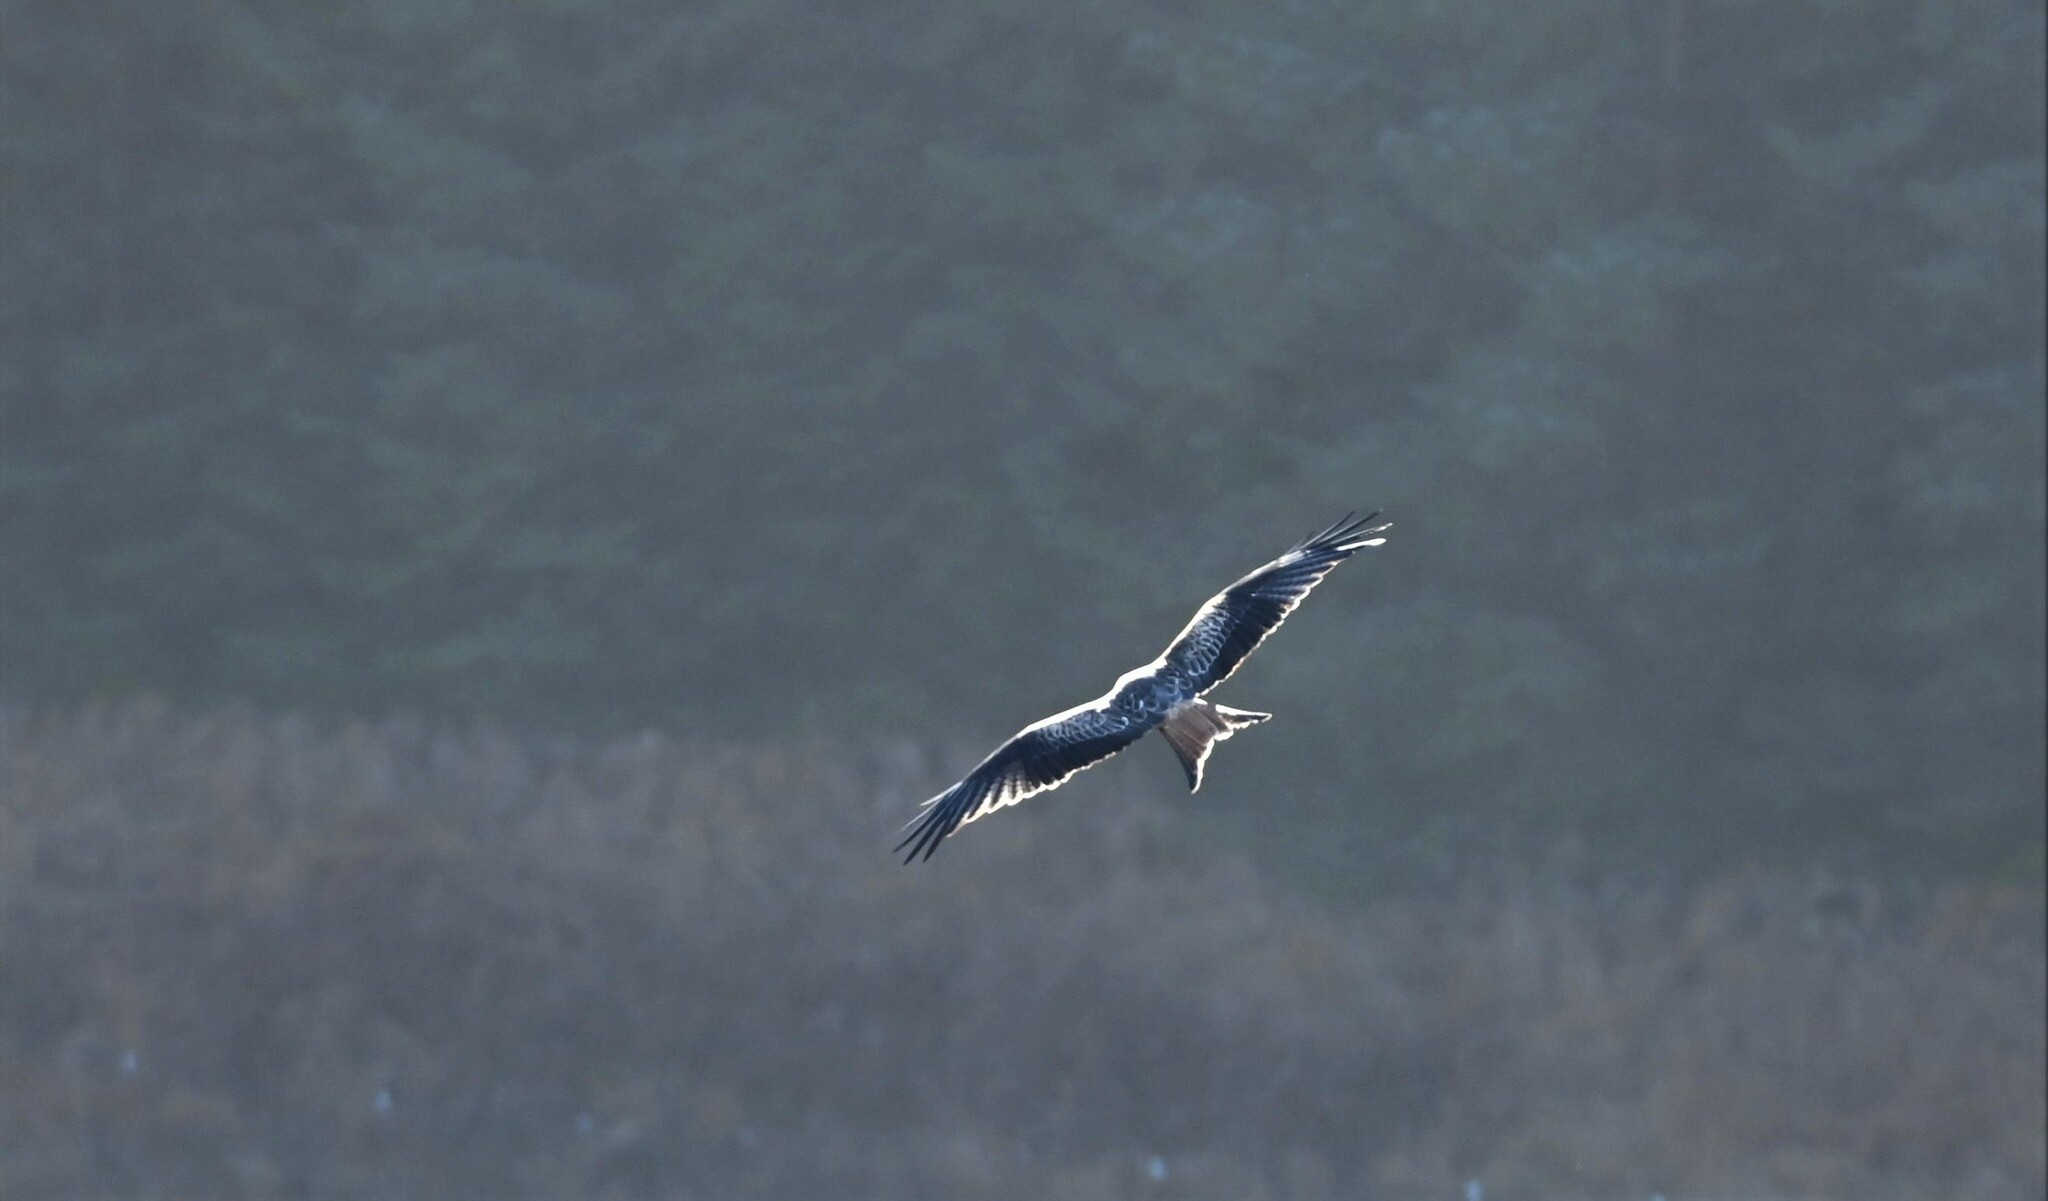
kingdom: Animalia
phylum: Chordata
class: Aves
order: Accipitriformes
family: Accipitridae
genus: Milvus
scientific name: Milvus milvus
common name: Red kite
